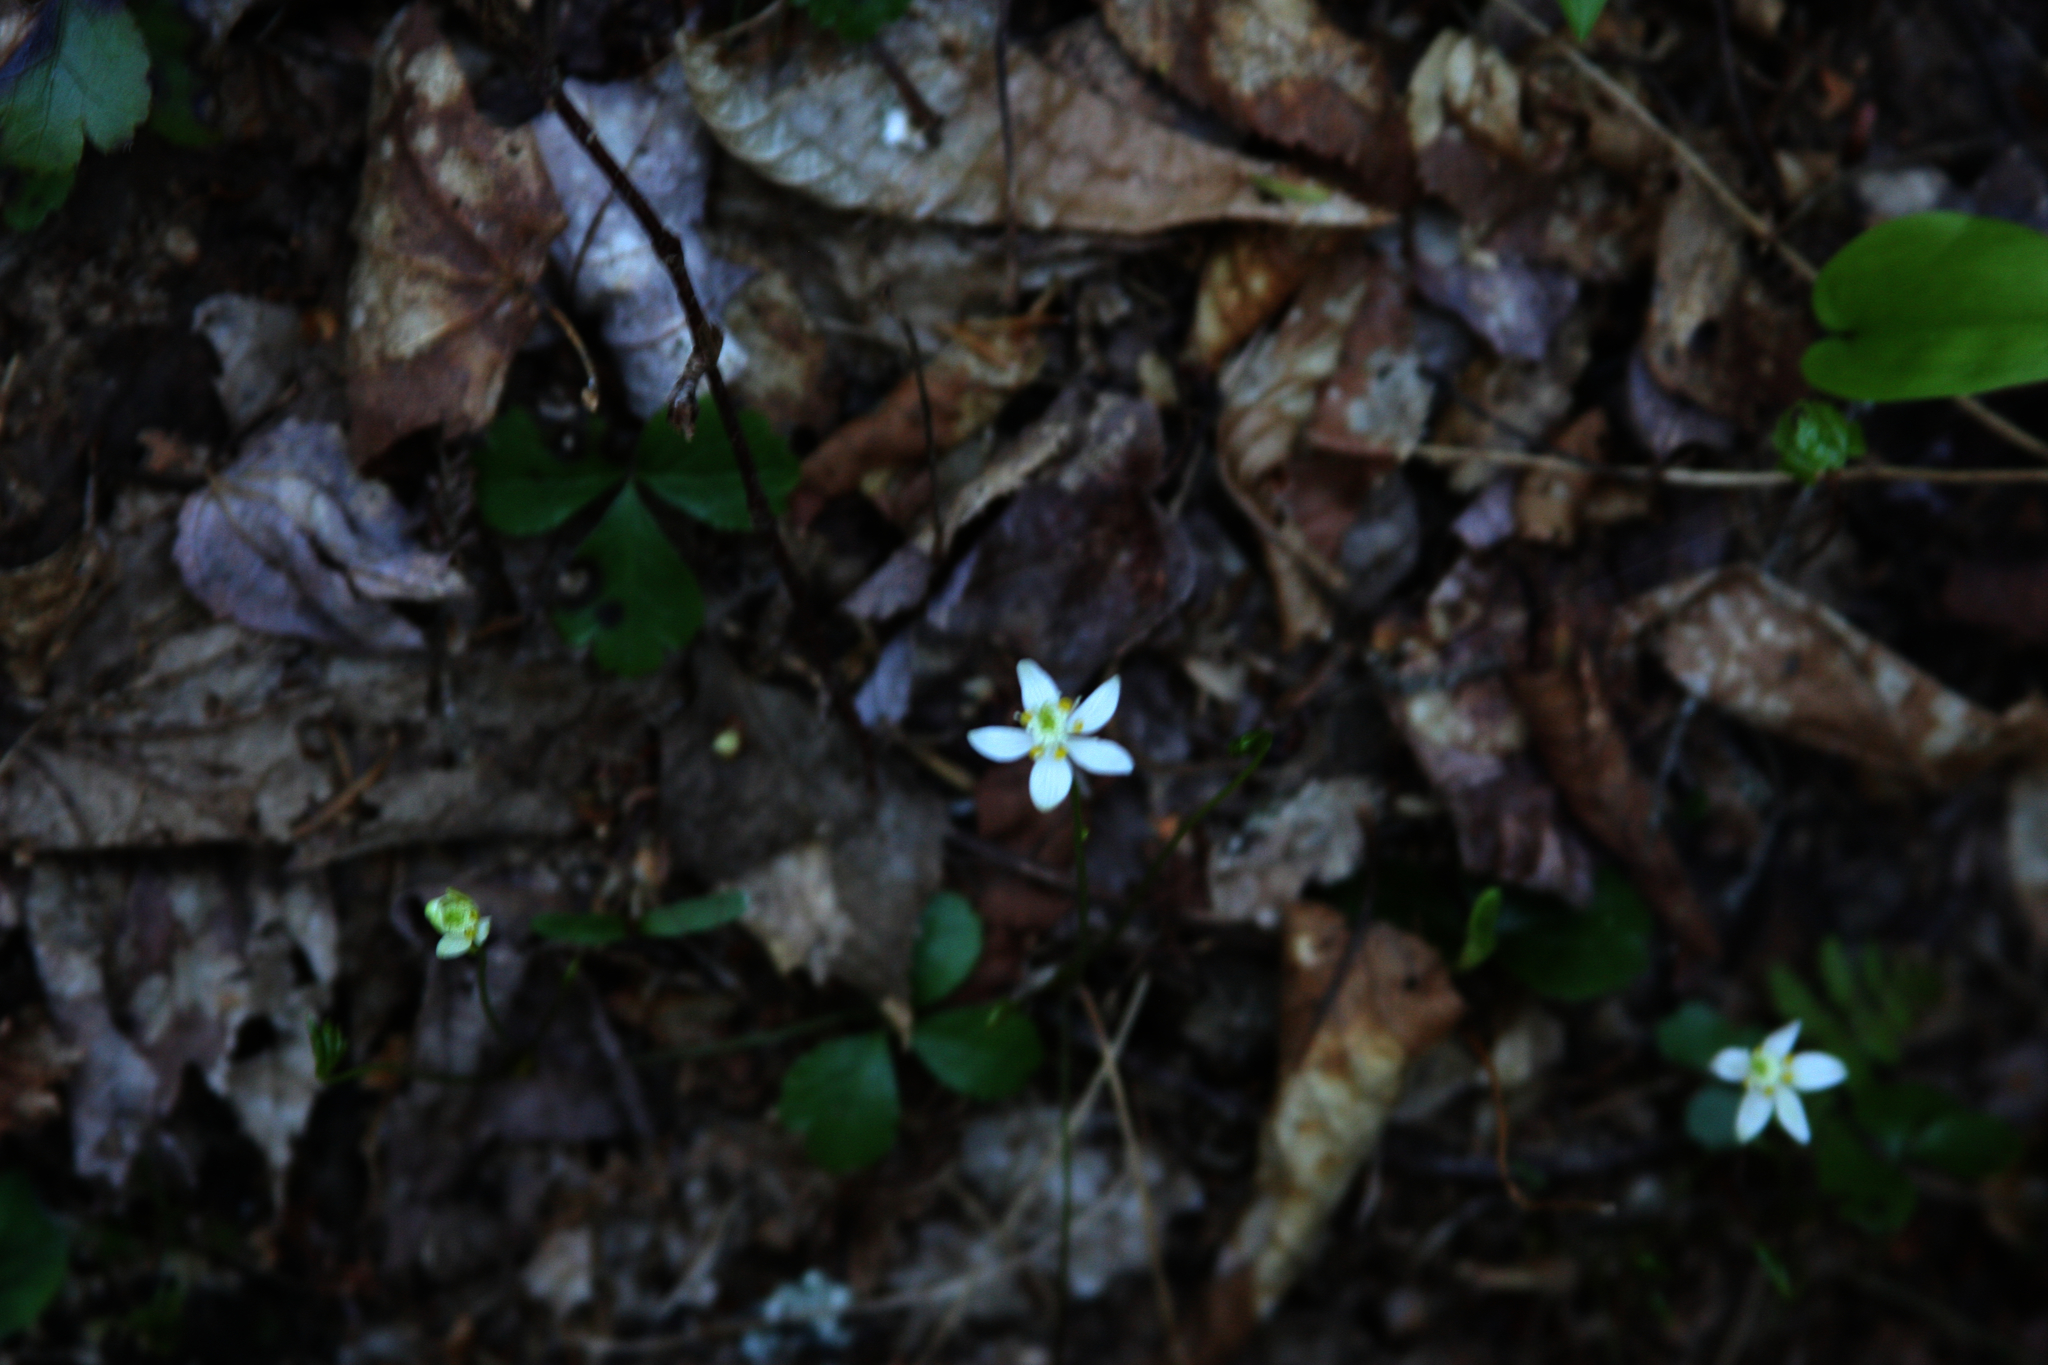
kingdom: Plantae
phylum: Tracheophyta
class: Magnoliopsida
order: Ranunculales
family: Ranunculaceae
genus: Coptis
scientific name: Coptis trifolia
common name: Canker-root
